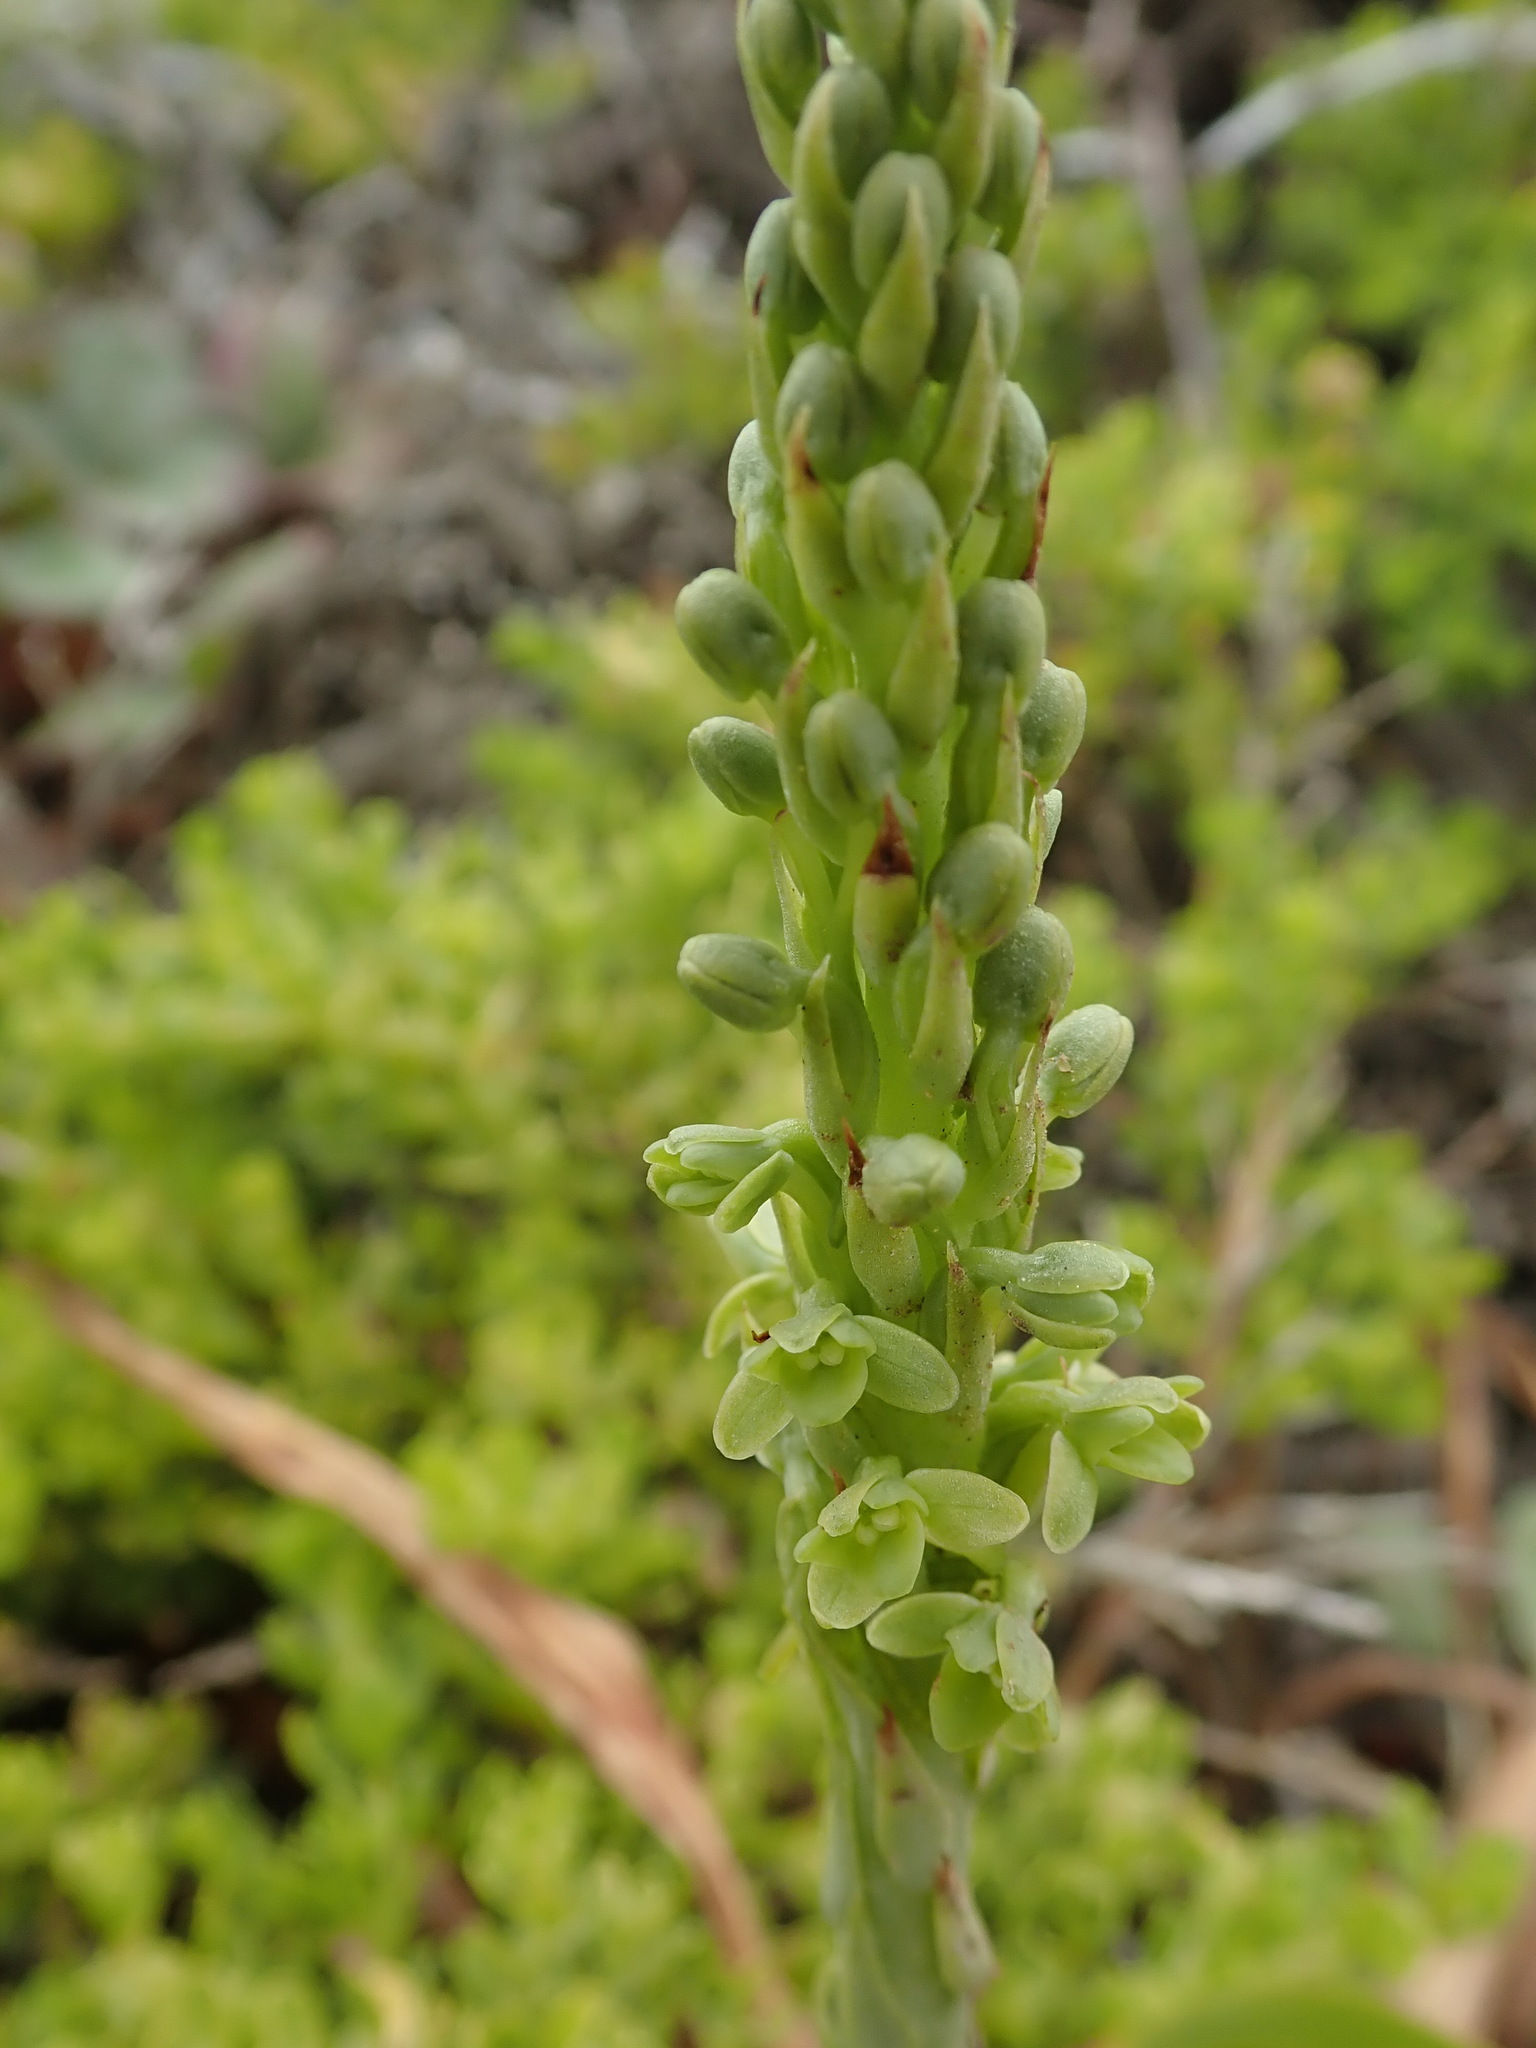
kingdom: Plantae
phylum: Tracheophyta
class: Liliopsida
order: Asparagales
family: Orchidaceae
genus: Platanthera
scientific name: Platanthera michaelii
